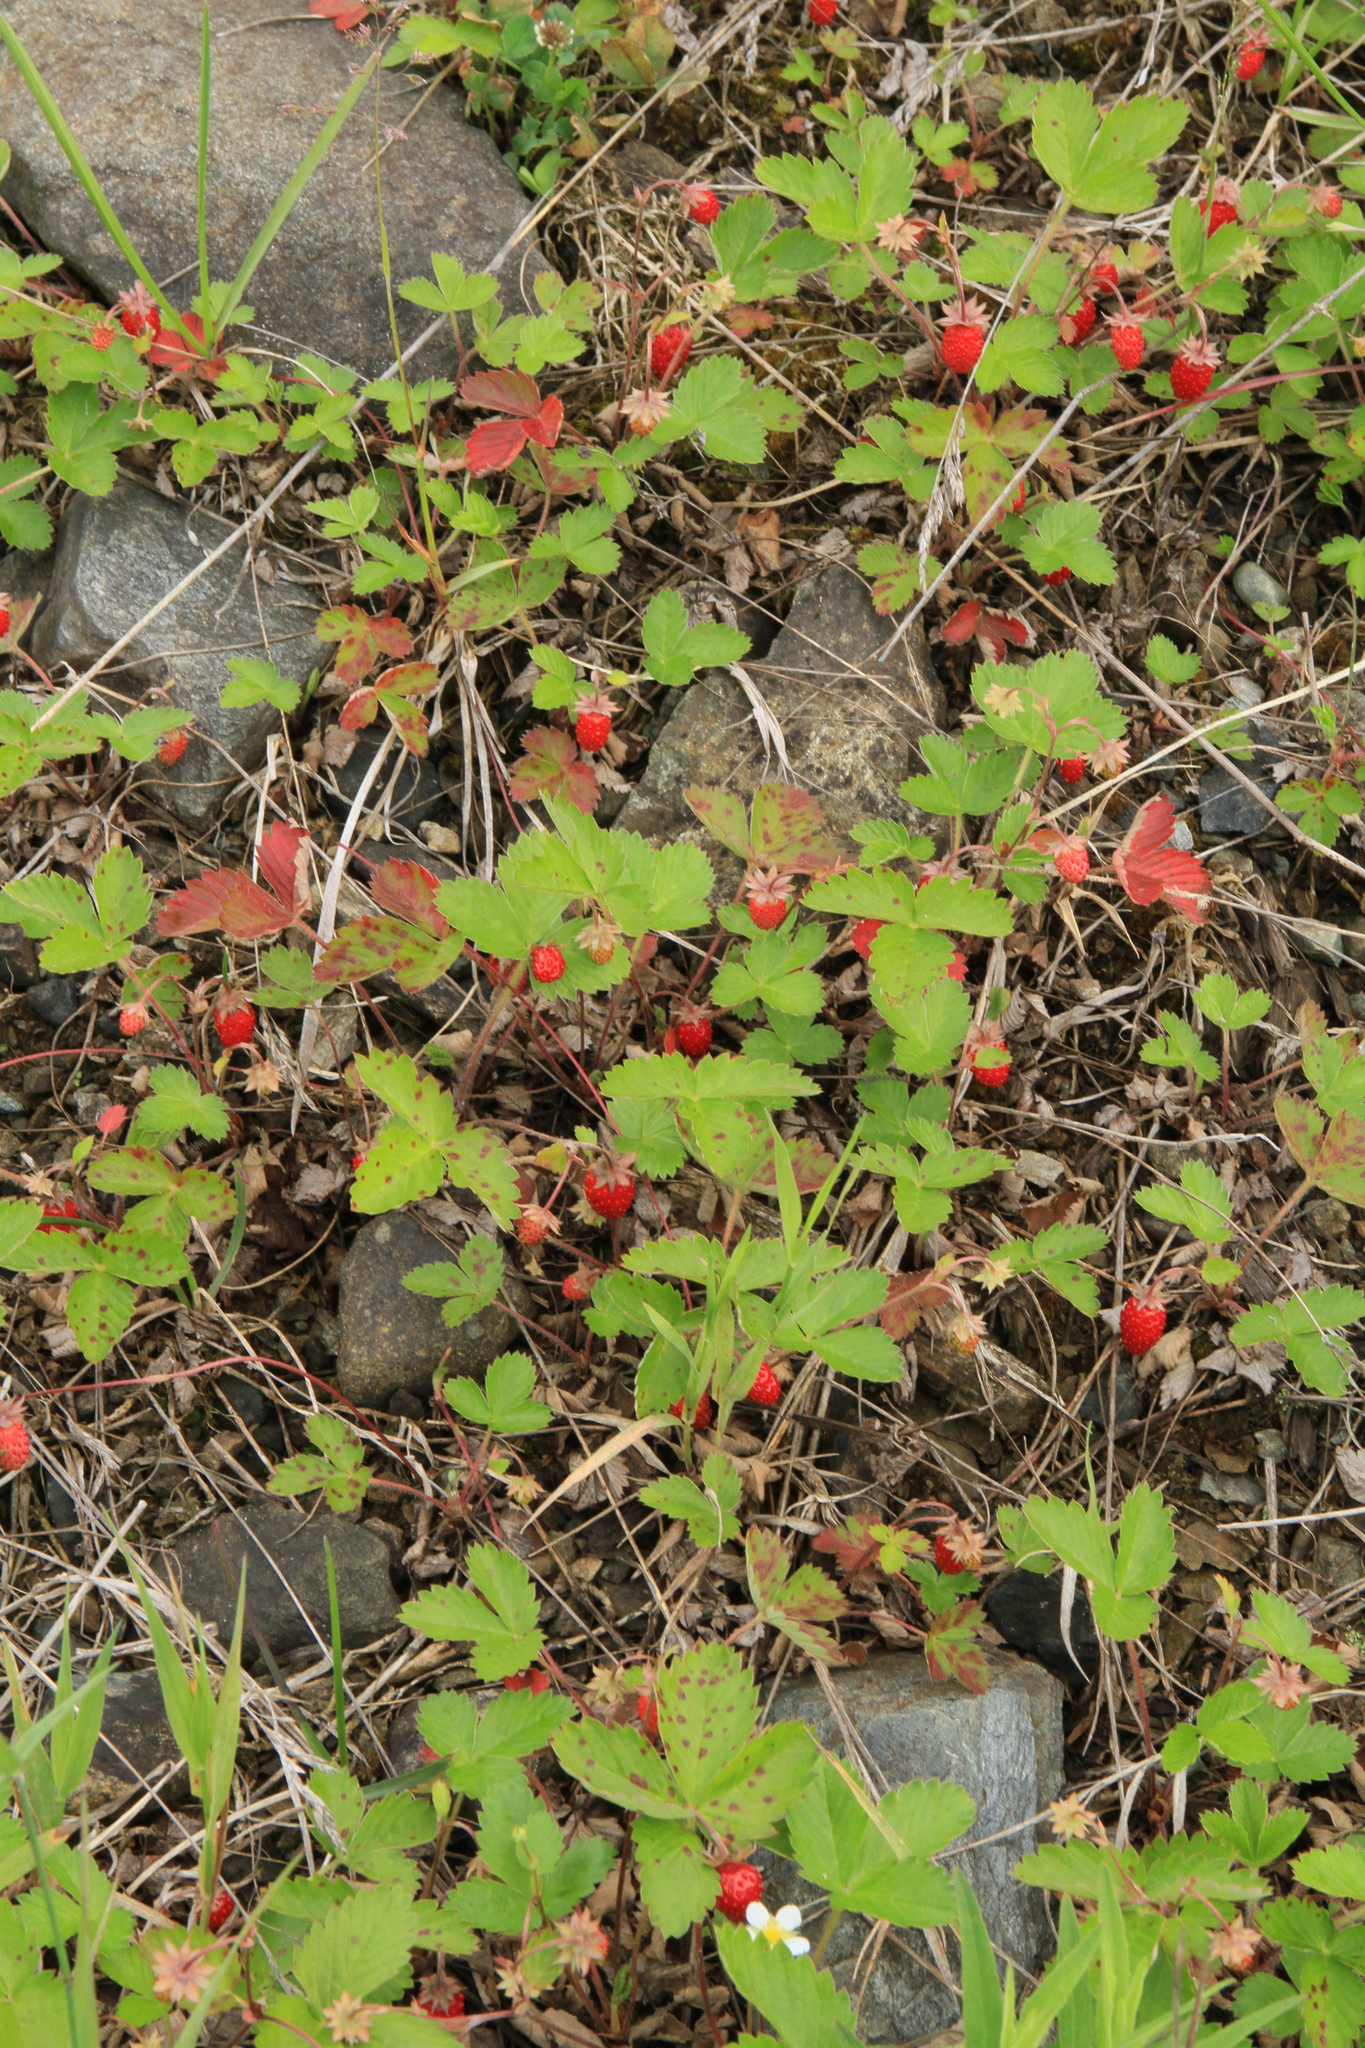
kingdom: Plantae
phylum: Tracheophyta
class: Magnoliopsida
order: Rosales
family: Rosaceae
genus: Fragaria
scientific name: Fragaria vesca
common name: Wild strawberry
